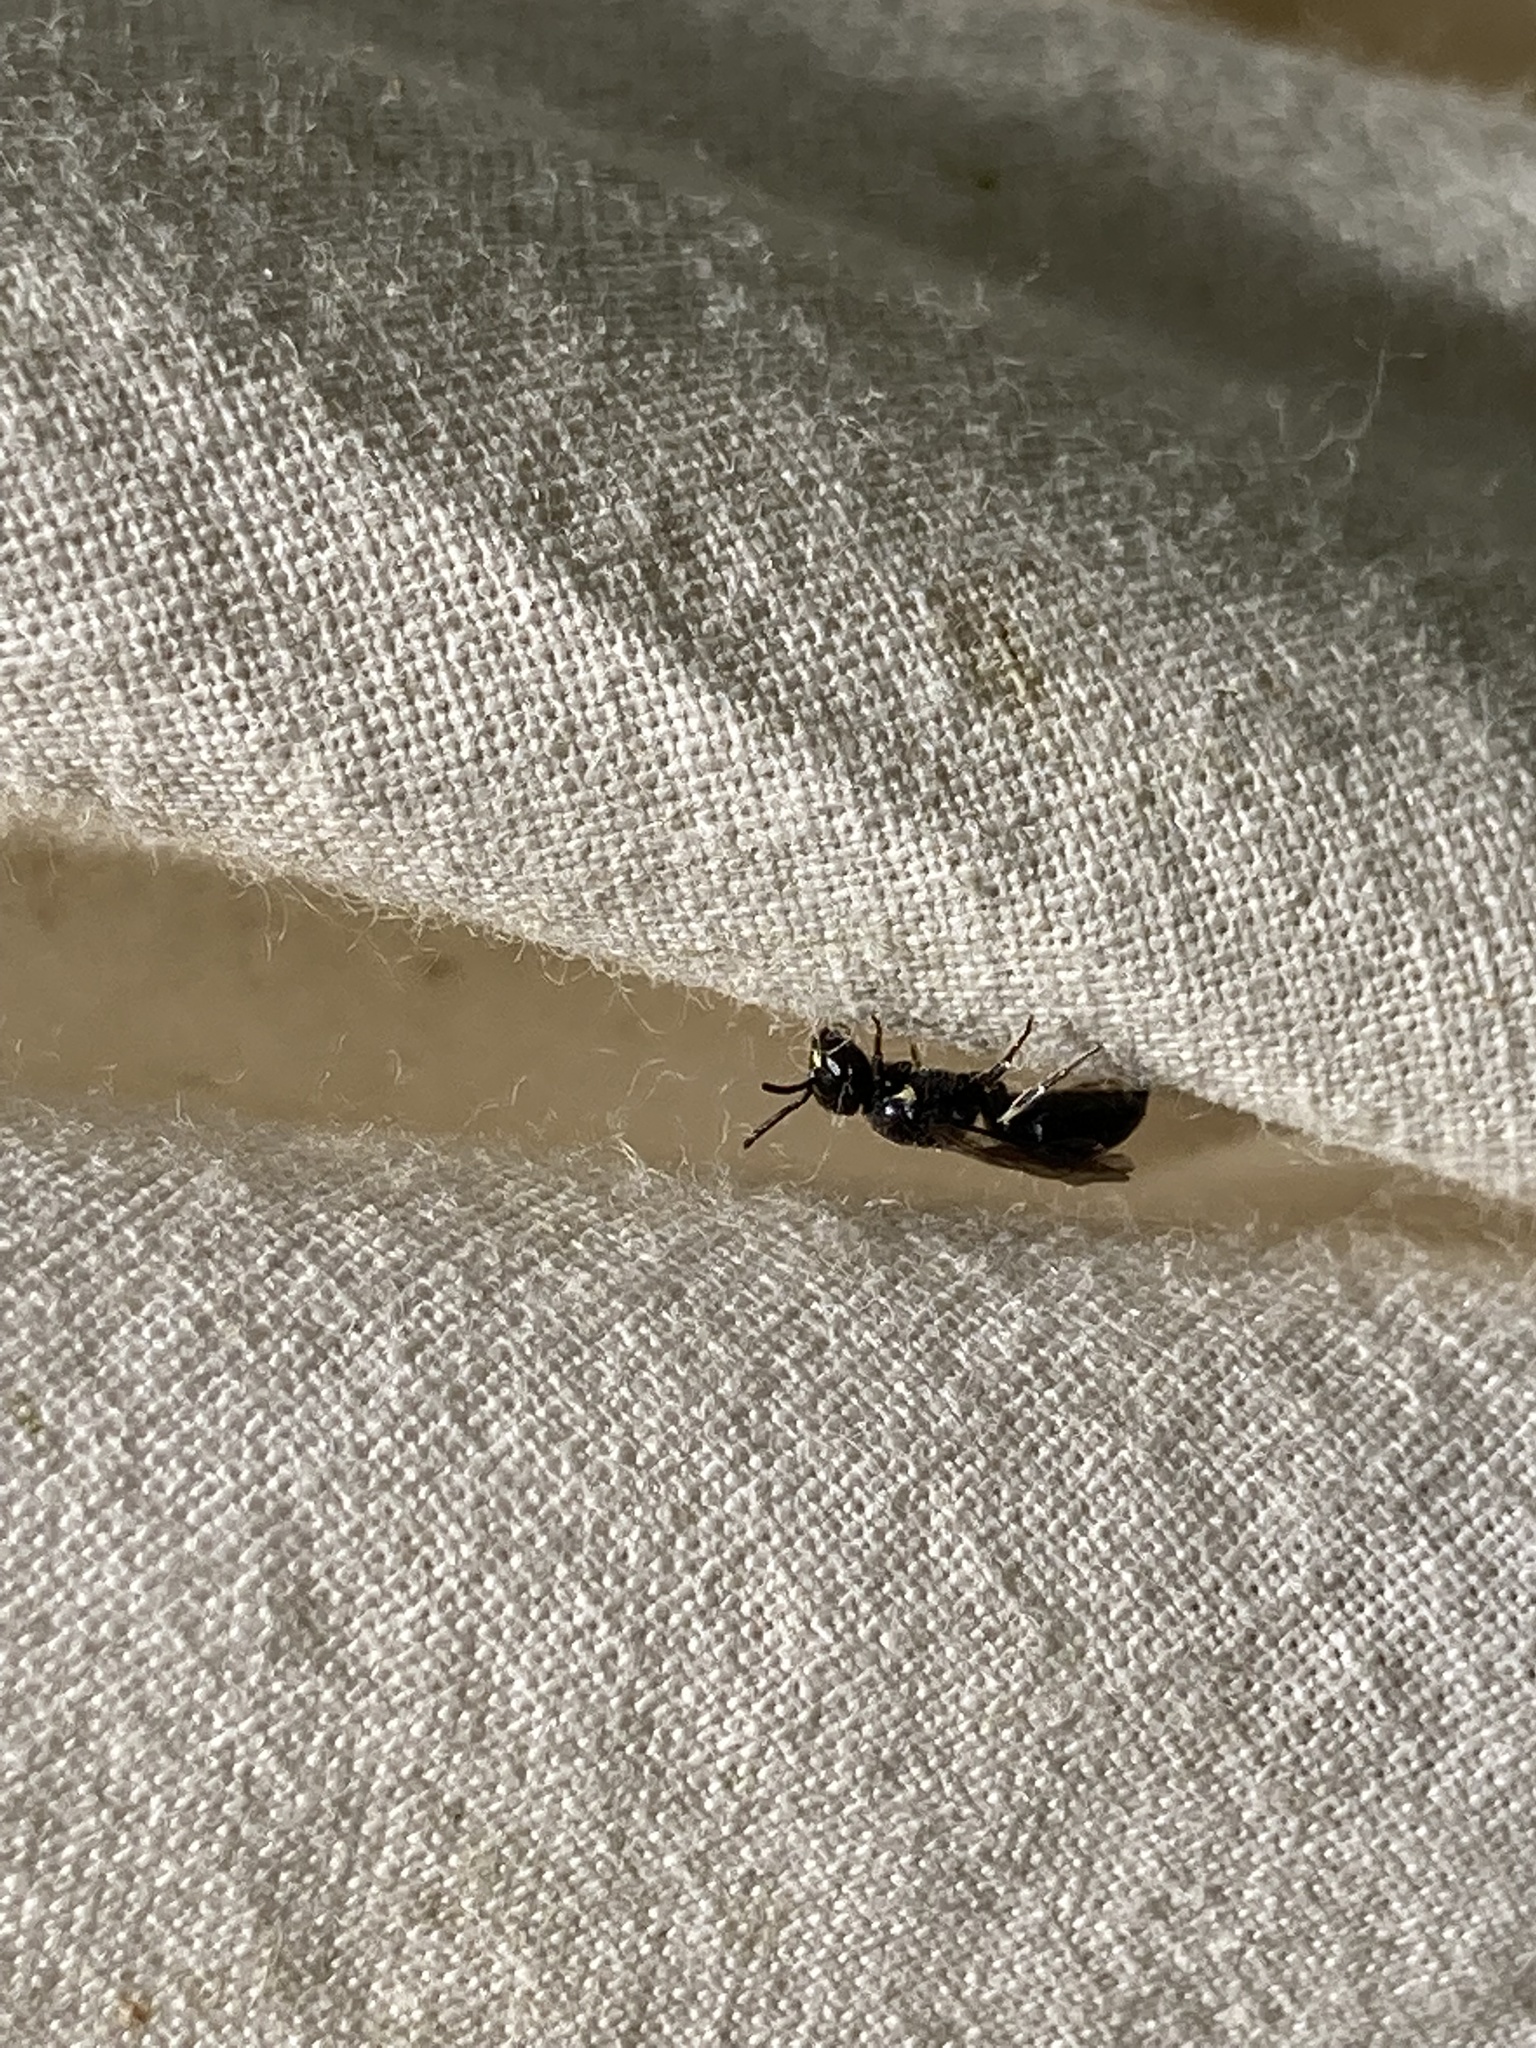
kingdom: Animalia
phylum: Arthropoda
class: Insecta
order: Hymenoptera
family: Colletidae
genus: Hylaeus
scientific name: Hylaeus mesillae
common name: Mesilla masked bee
